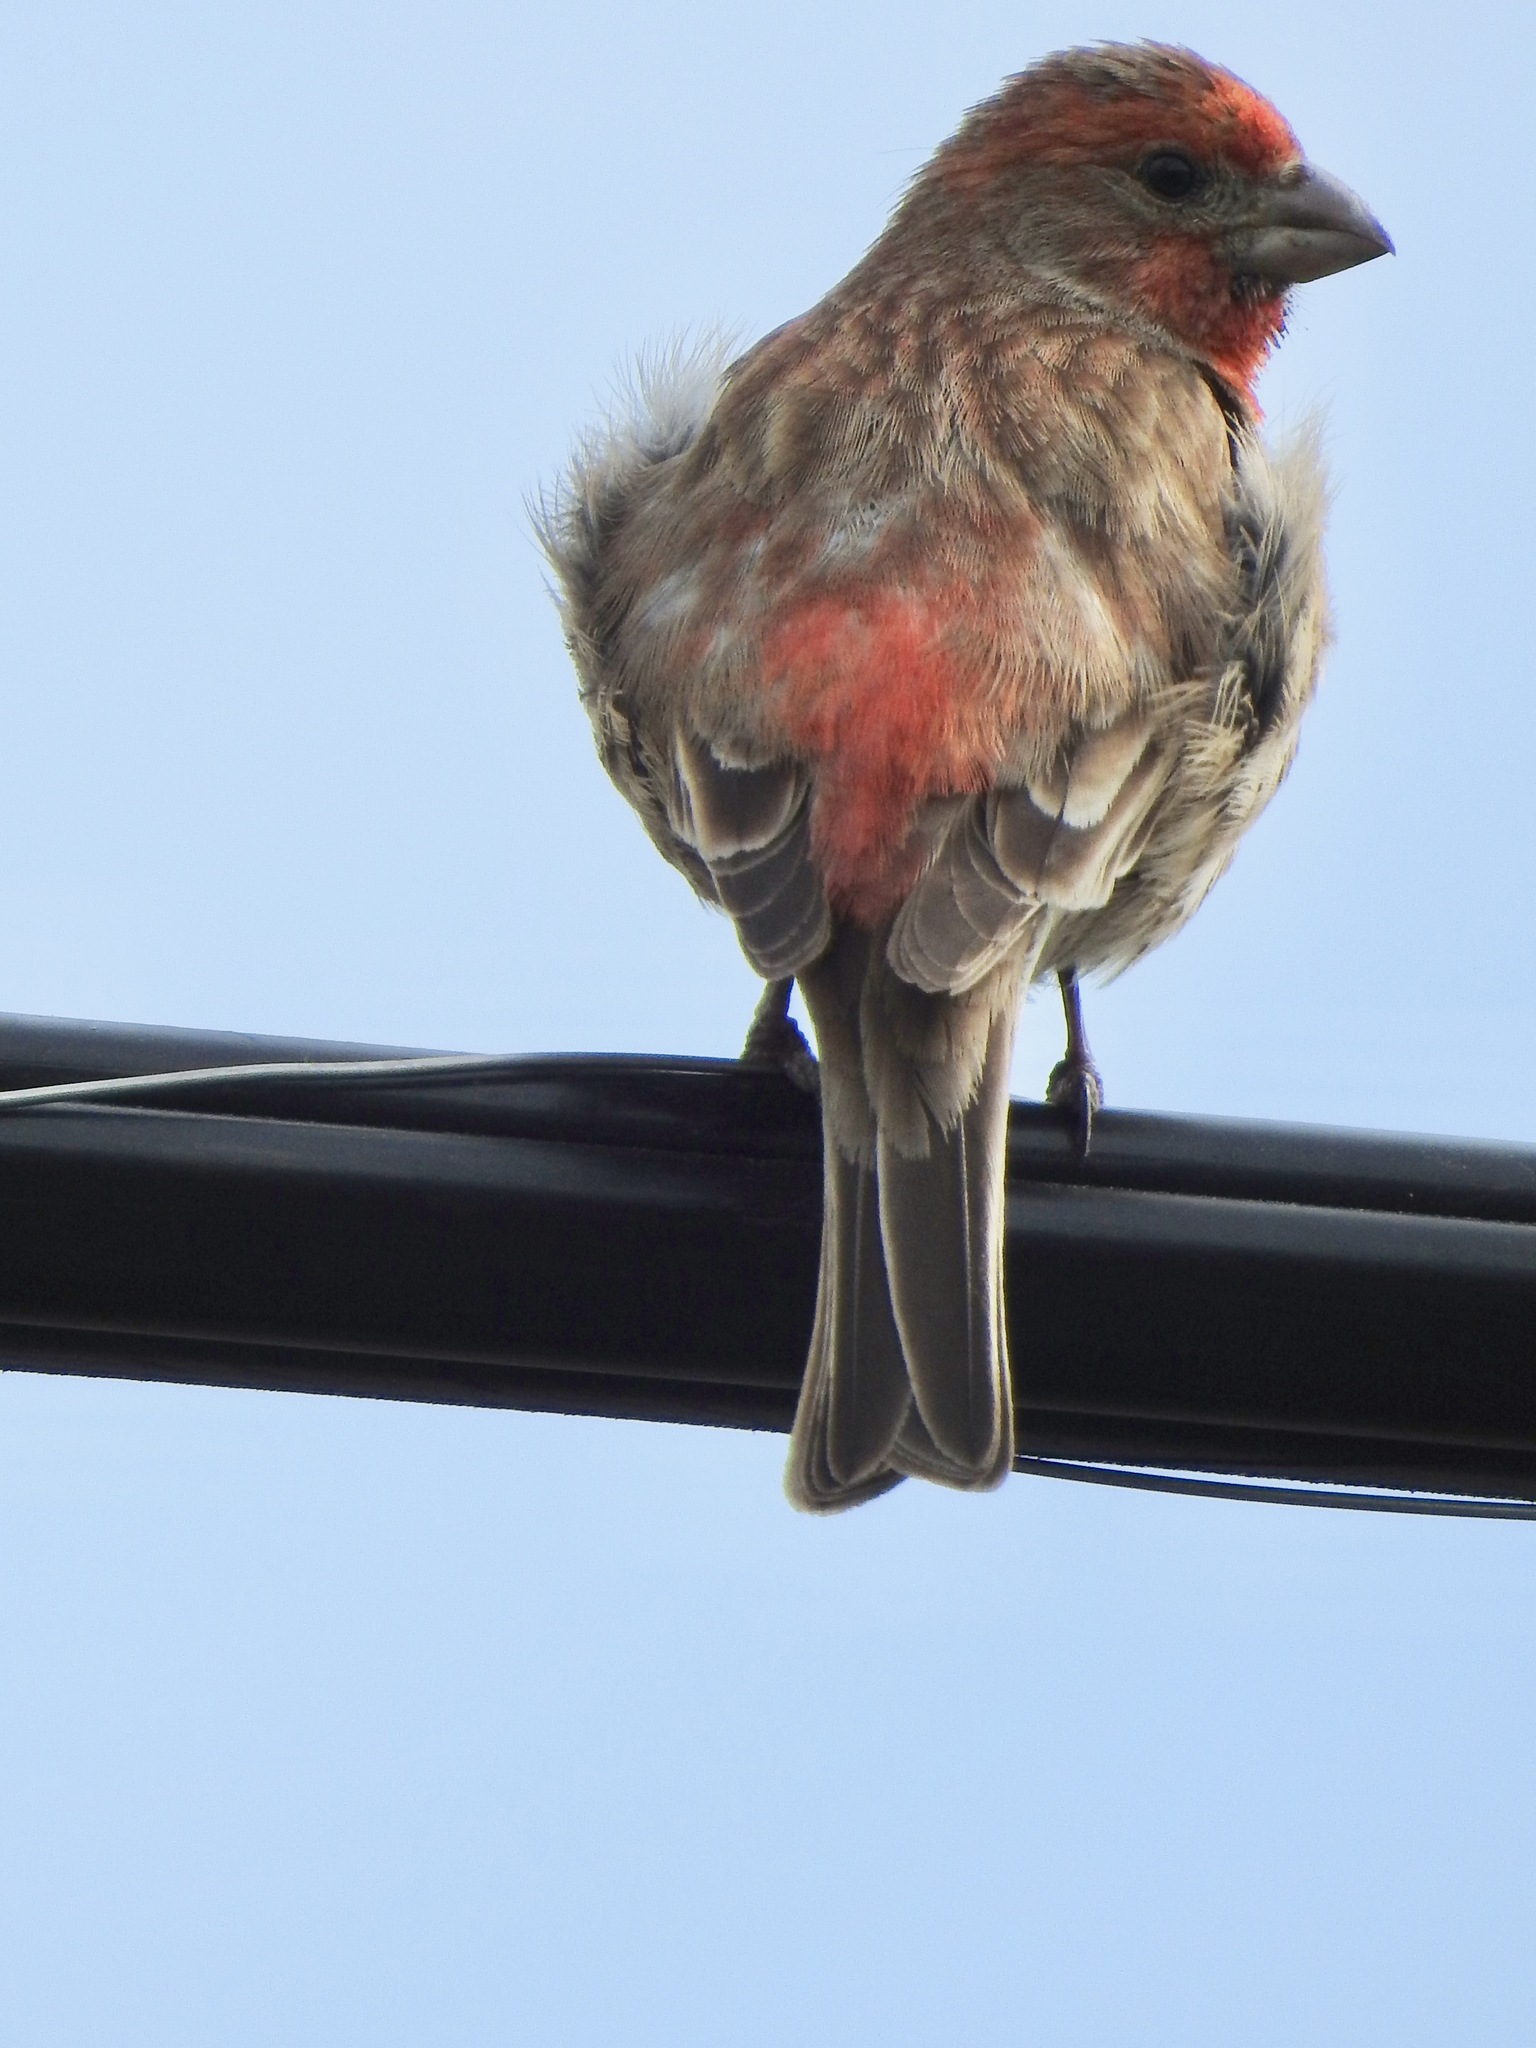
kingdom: Animalia
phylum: Chordata
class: Aves
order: Passeriformes
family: Fringillidae
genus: Haemorhous
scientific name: Haemorhous mexicanus
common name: House finch
